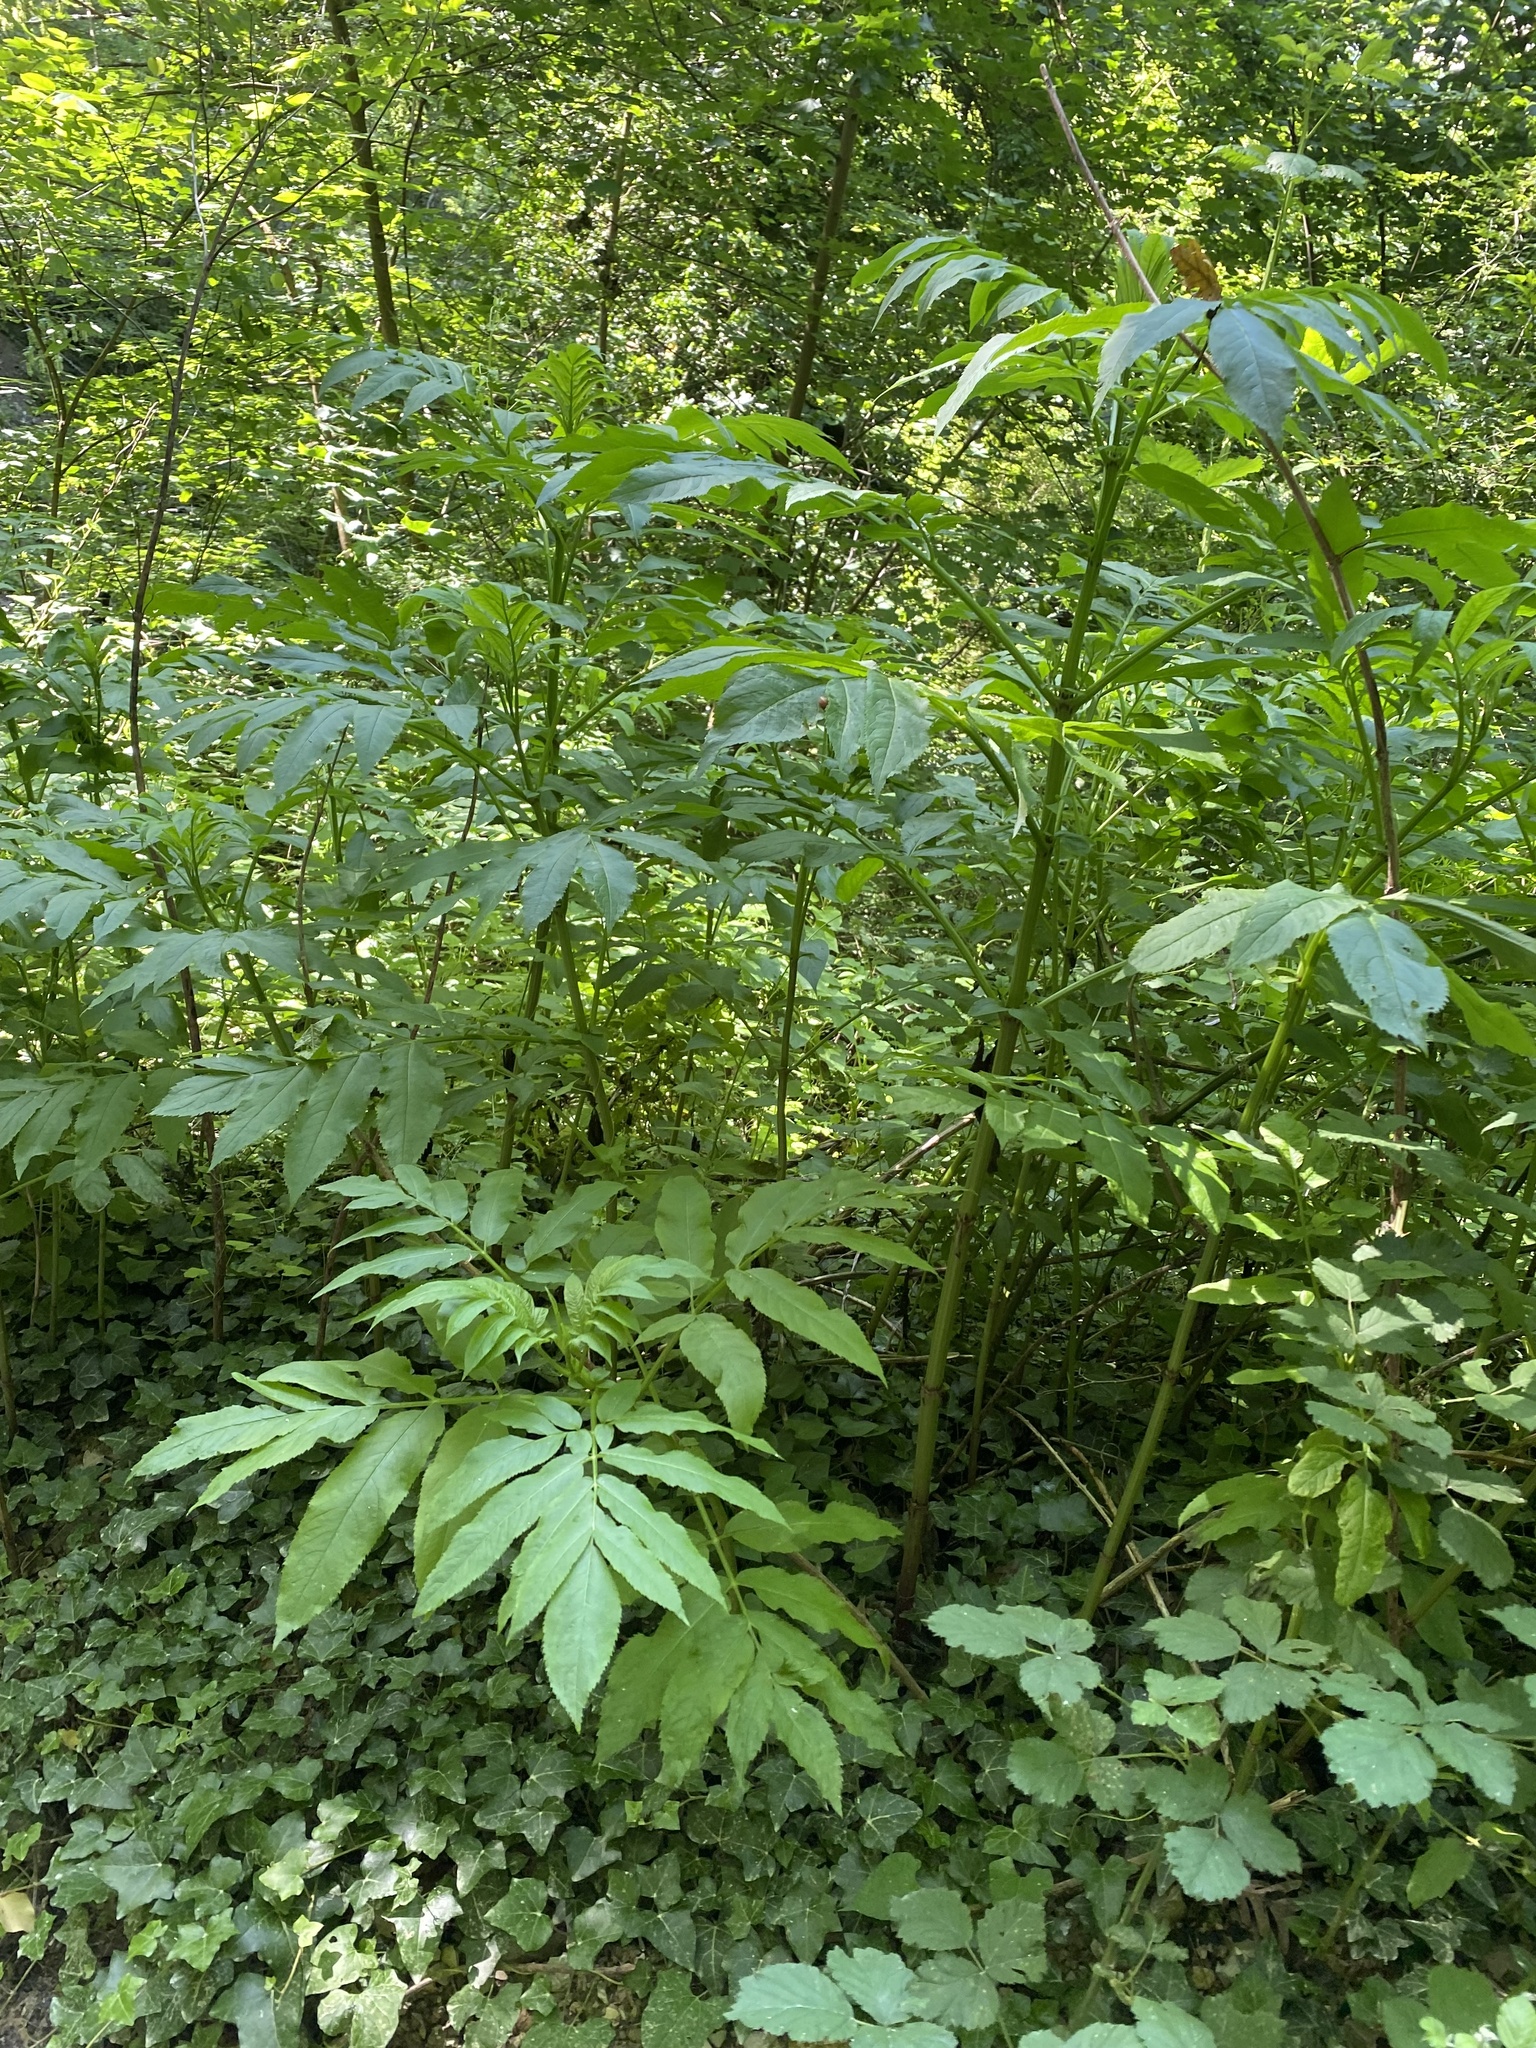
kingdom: Plantae
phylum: Tracheophyta
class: Magnoliopsida
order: Dipsacales
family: Viburnaceae
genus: Sambucus
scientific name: Sambucus ebulus
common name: Dwarf elder
